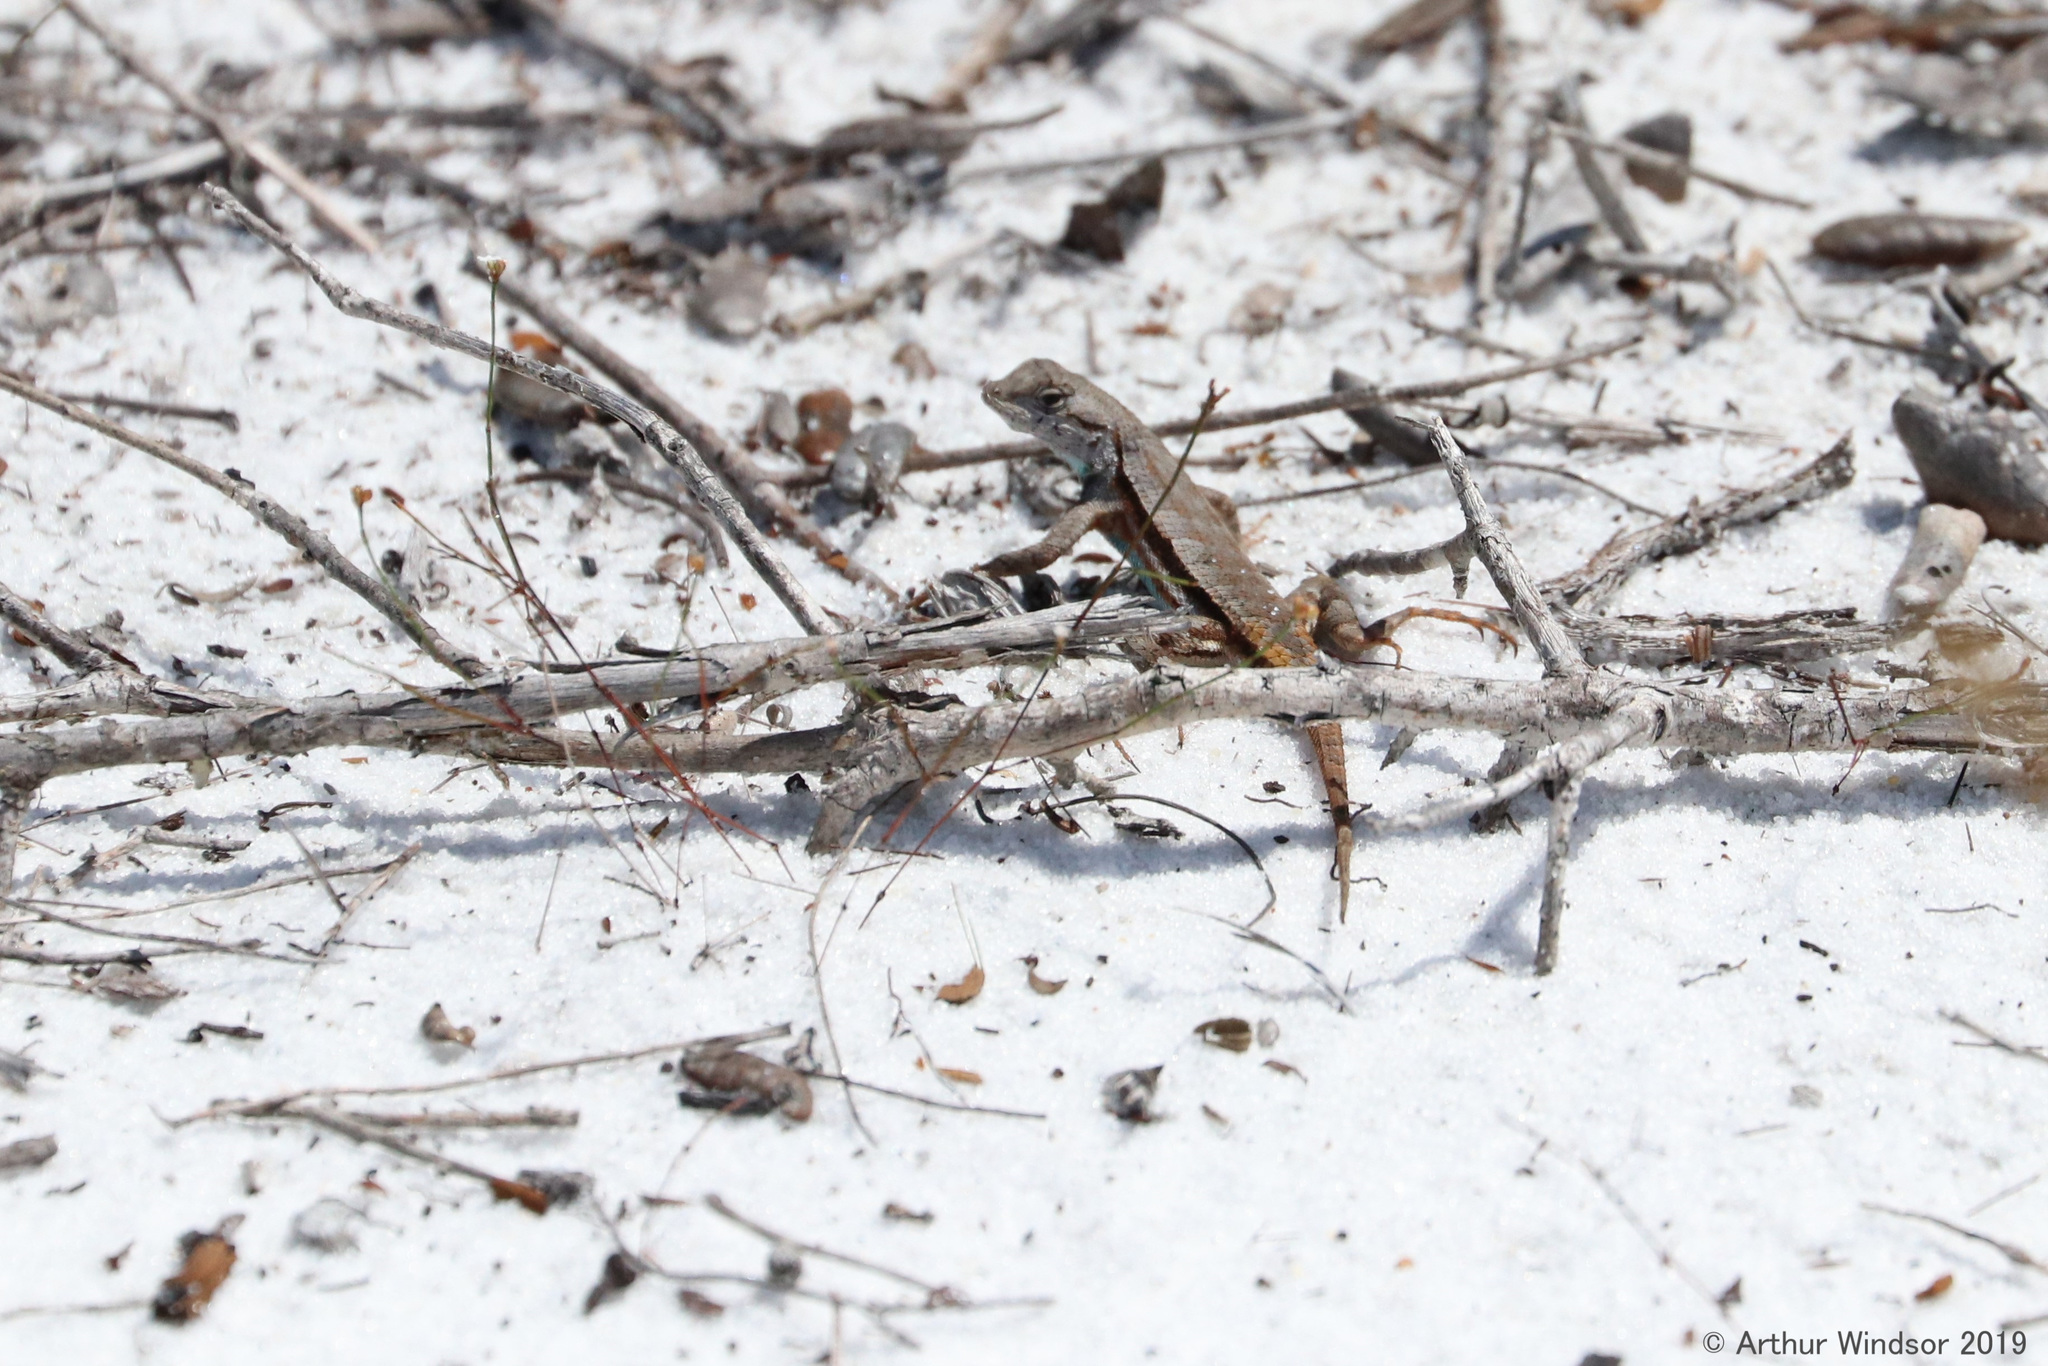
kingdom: Animalia
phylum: Chordata
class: Squamata
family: Phrynosomatidae
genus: Sceloporus
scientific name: Sceloporus woodi
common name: Florida scrub lizard
